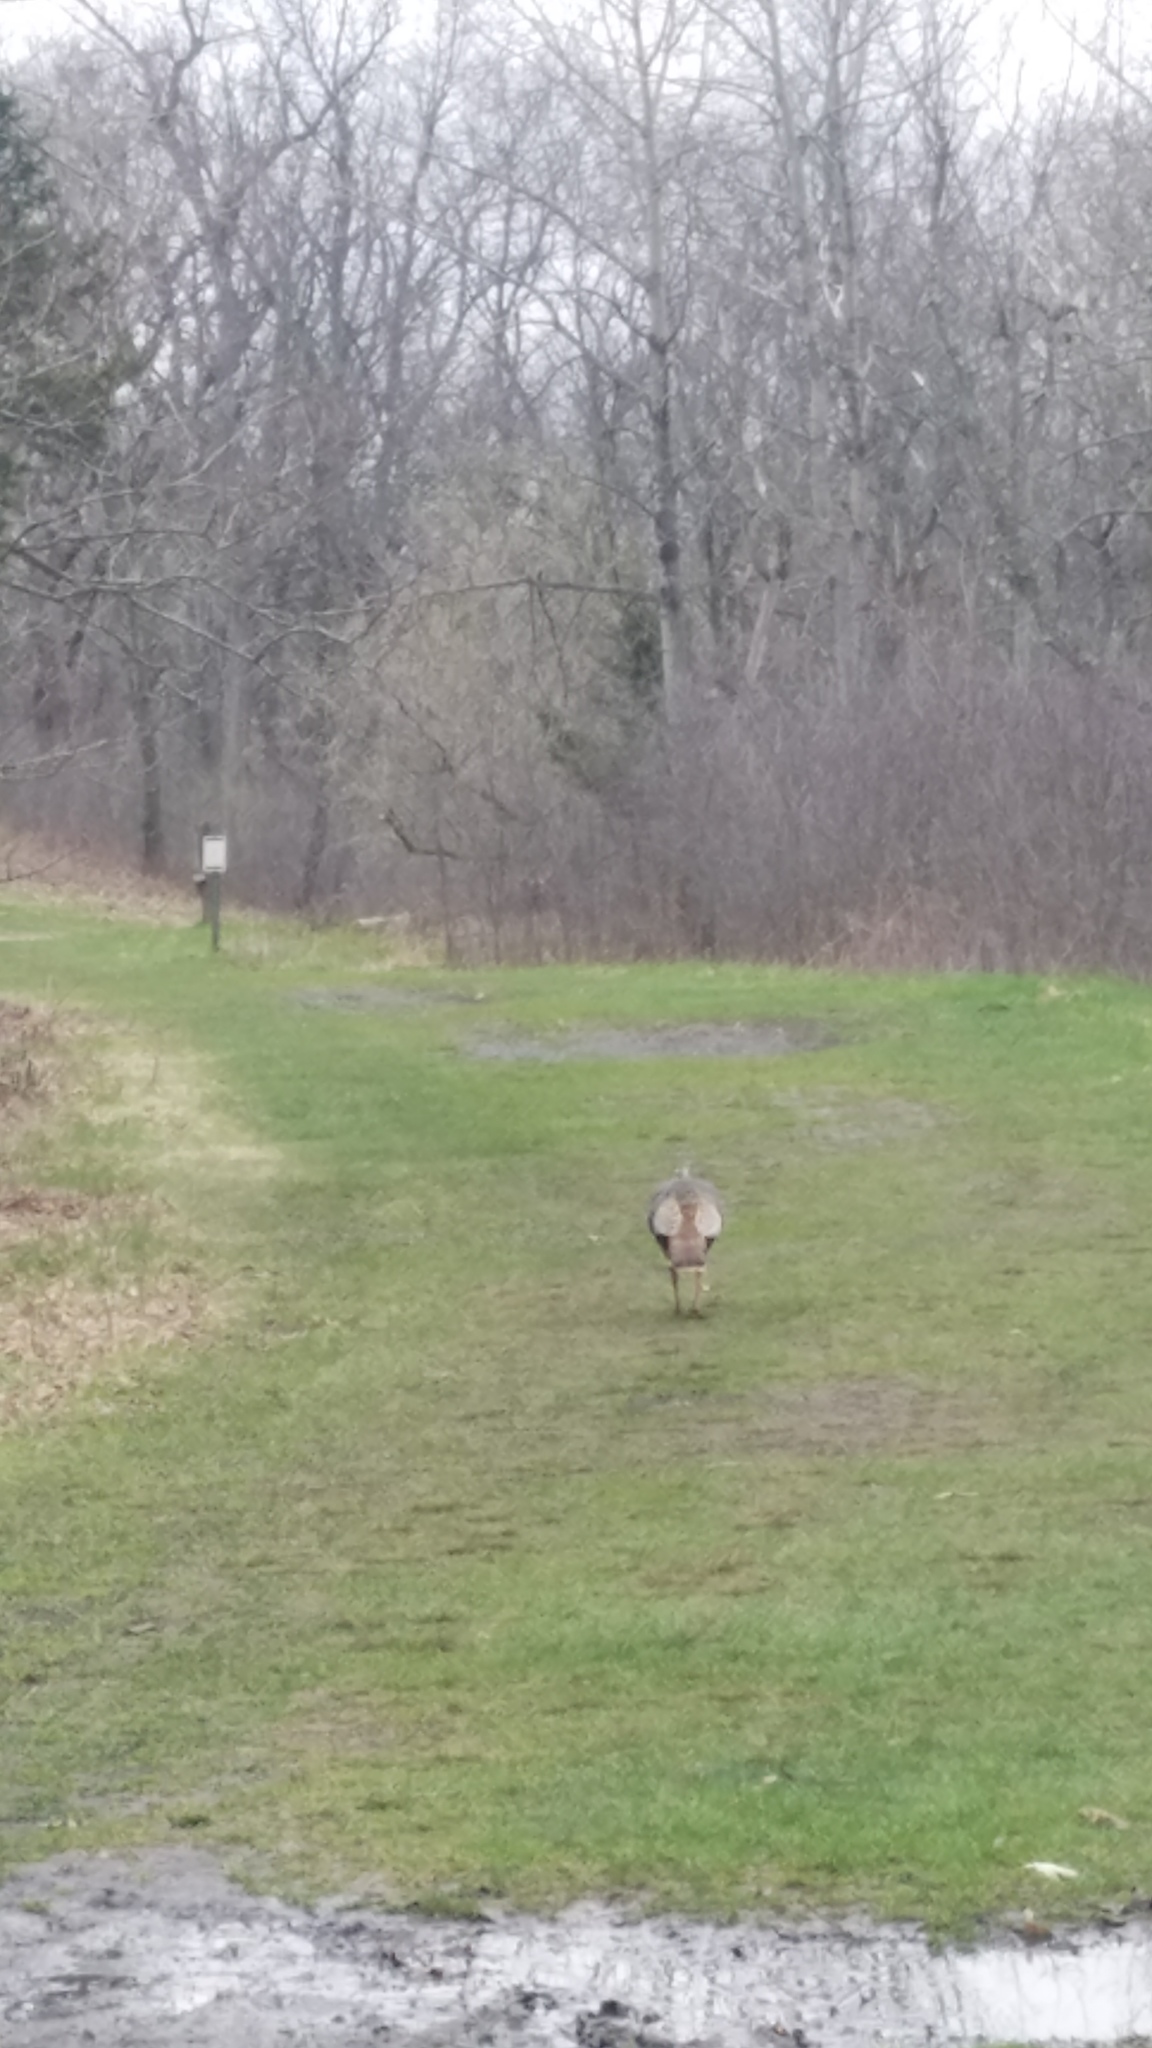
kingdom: Animalia
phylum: Chordata
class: Aves
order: Galliformes
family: Phasianidae
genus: Meleagris
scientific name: Meleagris gallopavo
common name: Wild turkey
